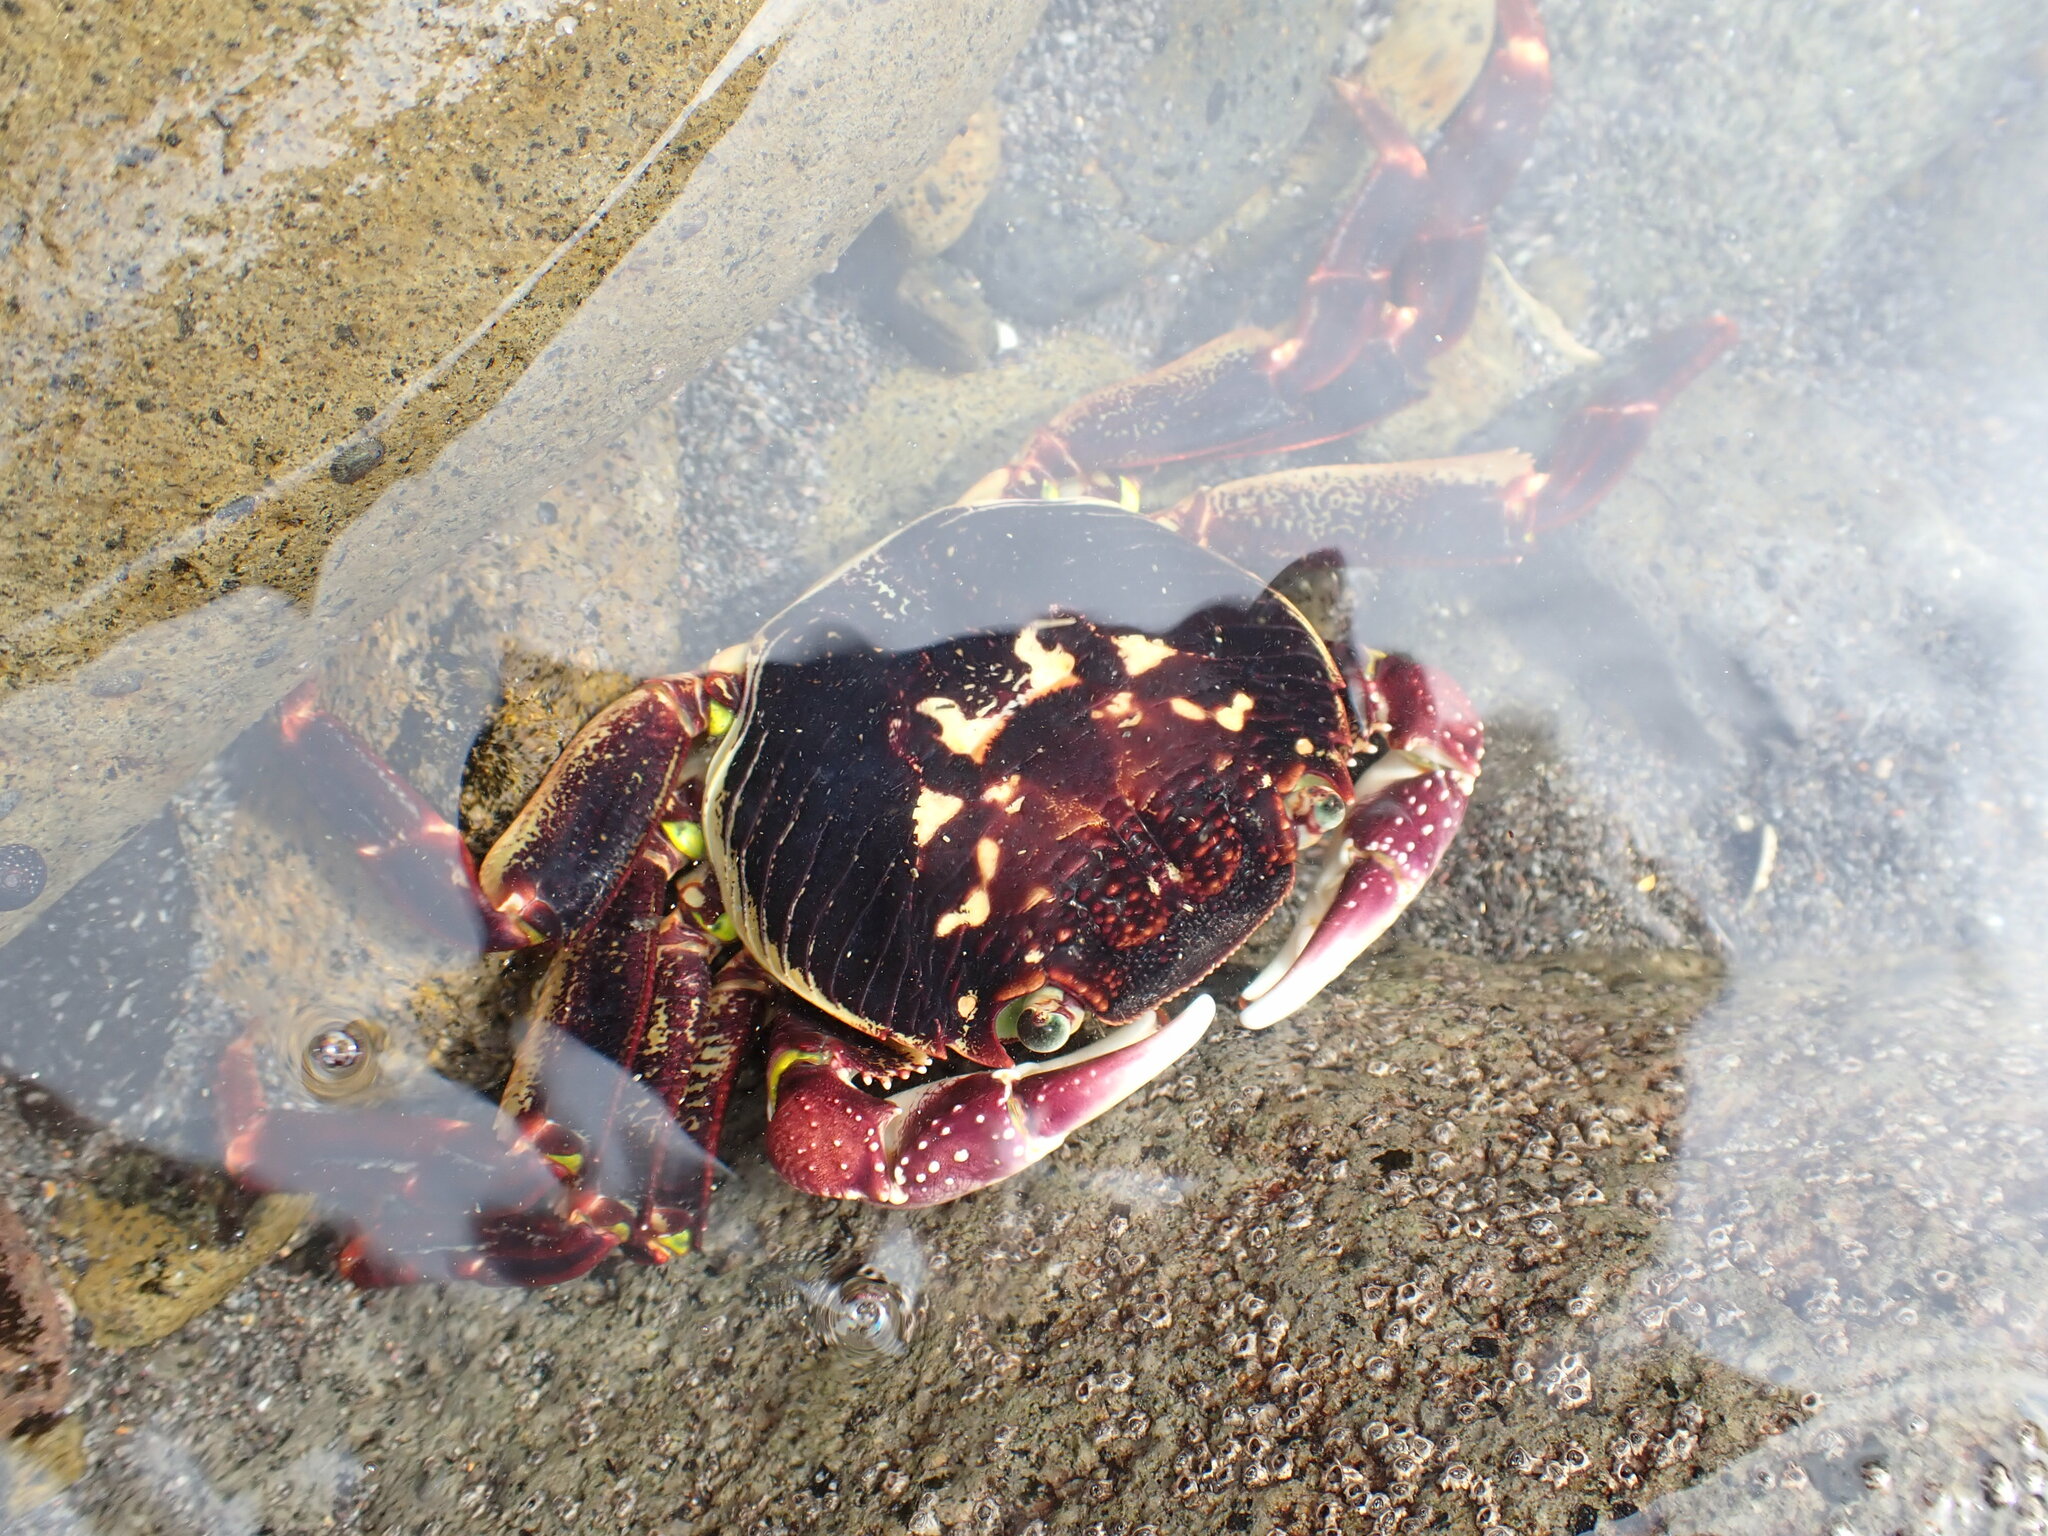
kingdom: Animalia
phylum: Arthropoda
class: Malacostraca
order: Decapoda
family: Grapsidae
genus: Leptograpsus
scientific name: Leptograpsus variegatus
